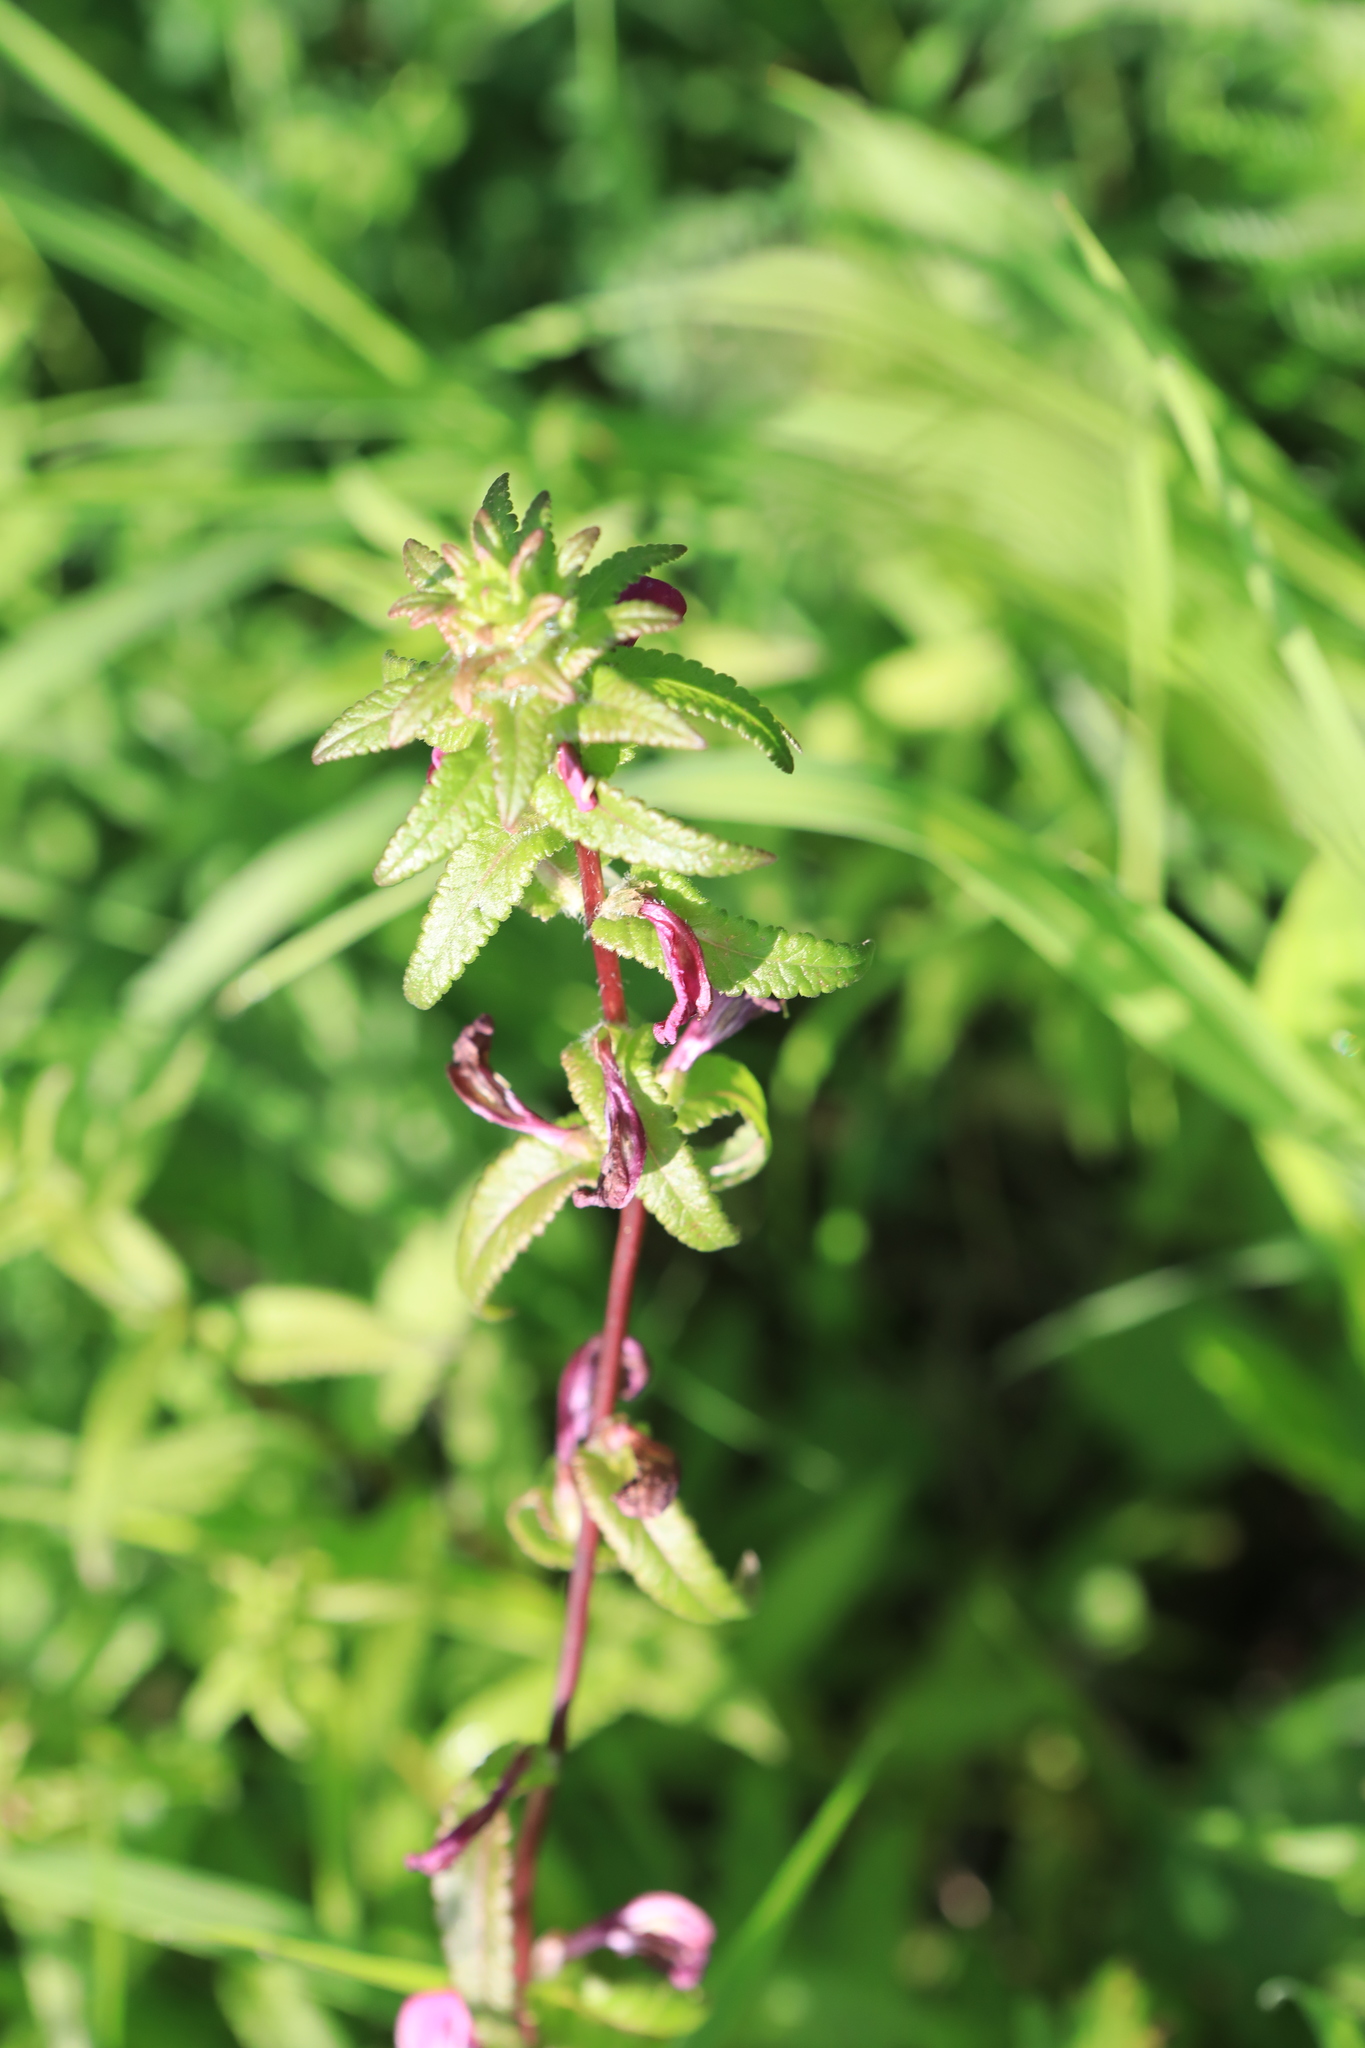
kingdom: Plantae
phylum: Tracheophyta
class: Magnoliopsida
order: Lamiales
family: Orobanchaceae
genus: Pedicularis
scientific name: Pedicularis resupinata
